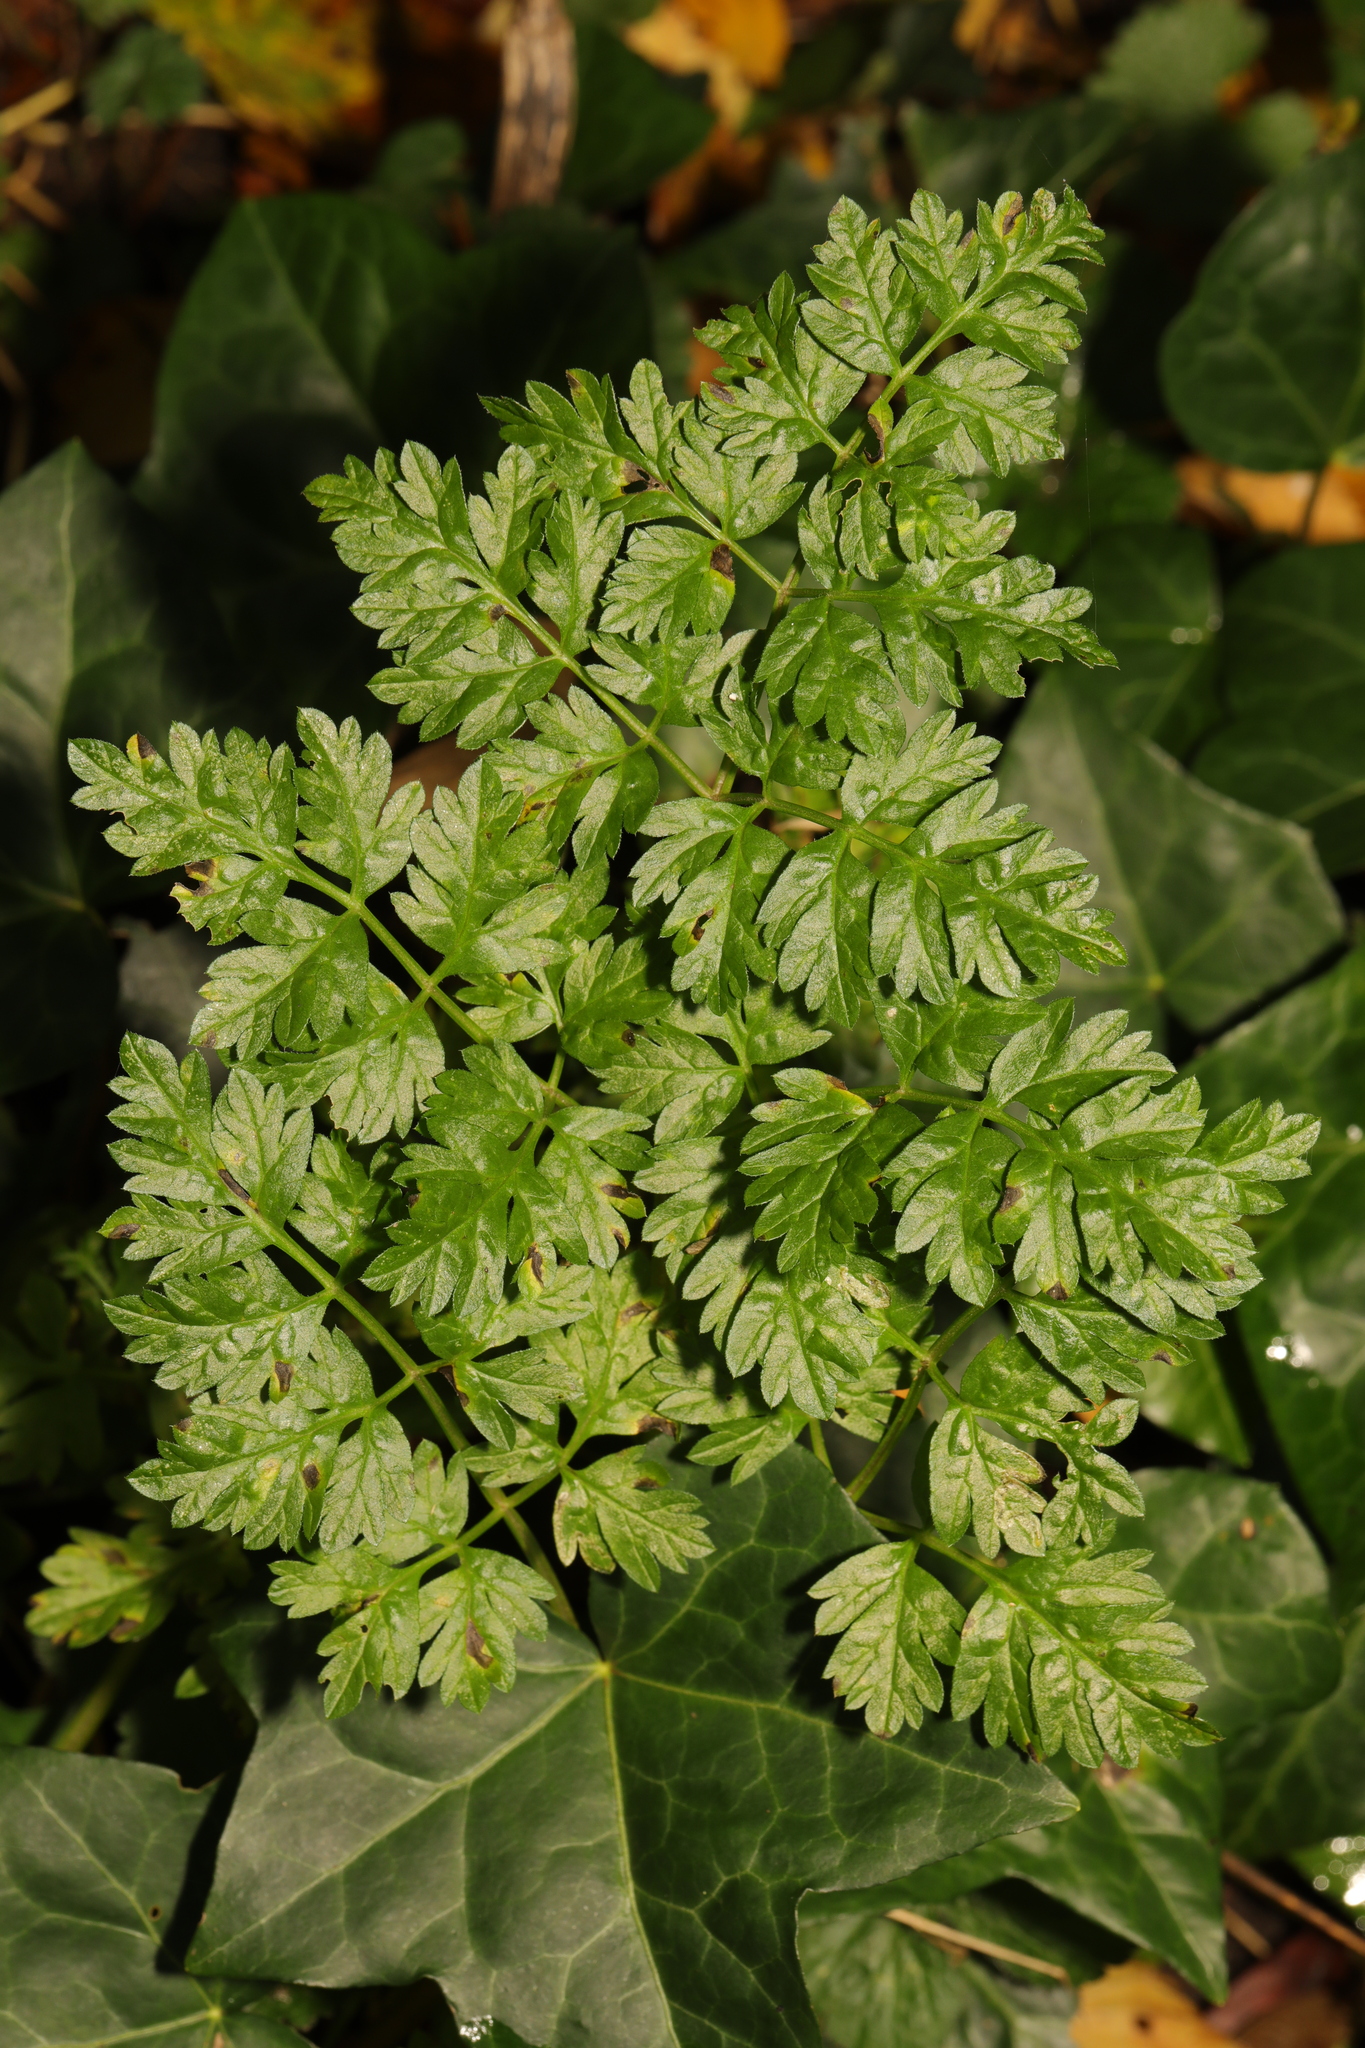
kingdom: Plantae
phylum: Tracheophyta
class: Magnoliopsida
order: Apiales
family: Apiaceae
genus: Anthriscus
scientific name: Anthriscus sylvestris
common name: Cow parsley
